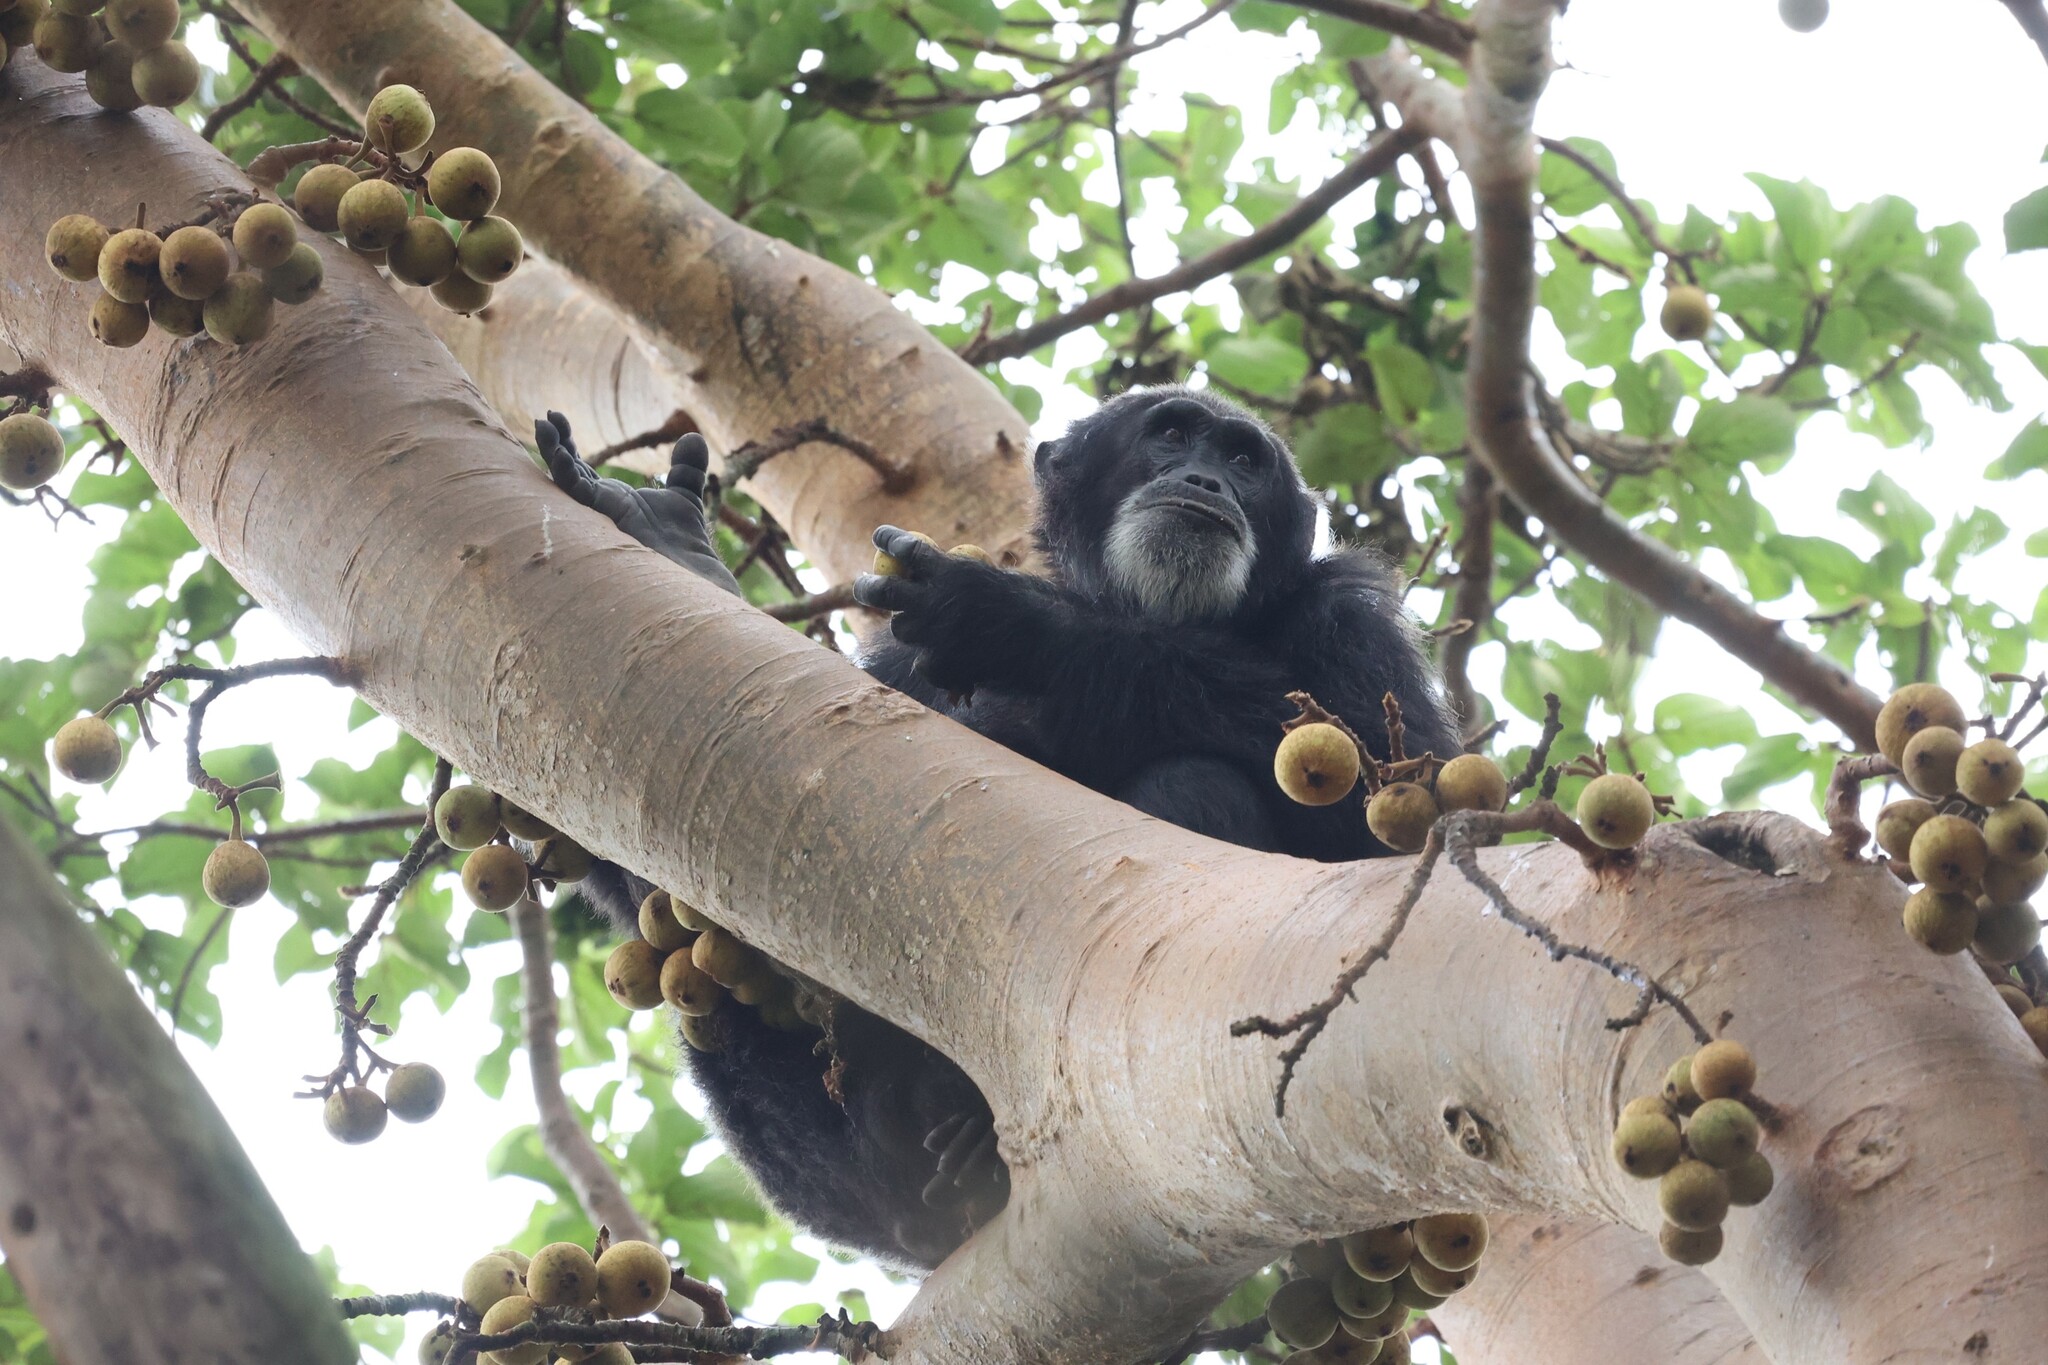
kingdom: Animalia
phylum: Chordata
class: Mammalia
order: Primates
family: Hominidae
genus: Pan
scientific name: Pan troglodytes
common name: Chimpanzee
